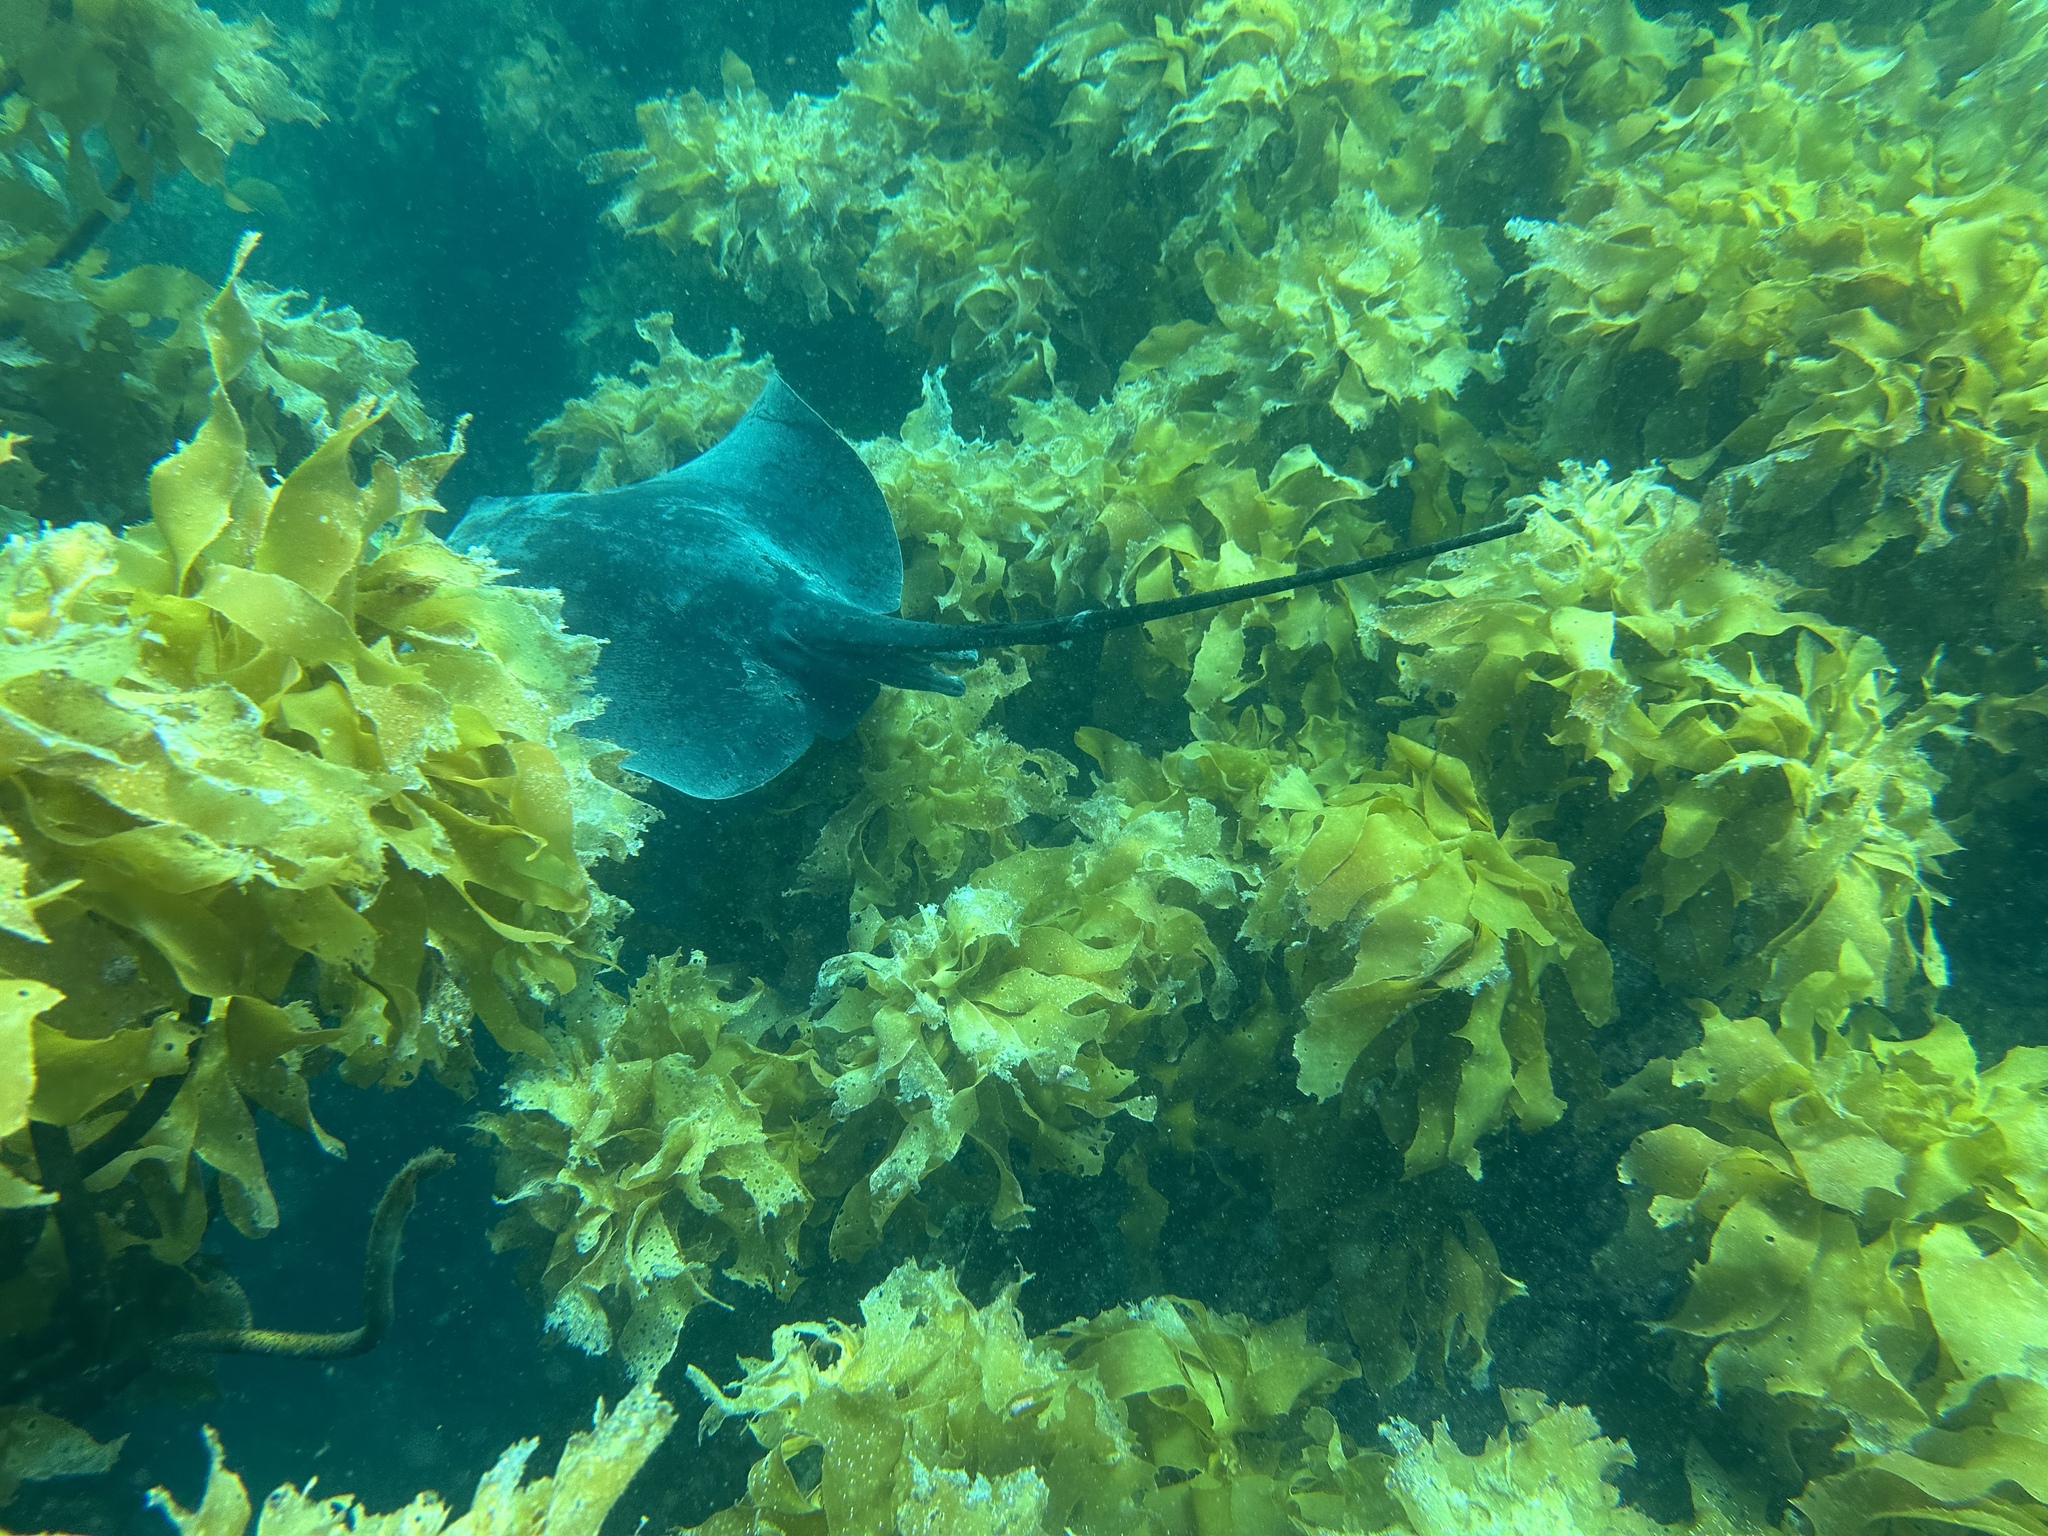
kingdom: Animalia
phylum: Chordata
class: Elasmobranchii
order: Myliobatiformes
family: Dasyatidae
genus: Bathytoshia
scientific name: Bathytoshia lata
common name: Brown stingray
